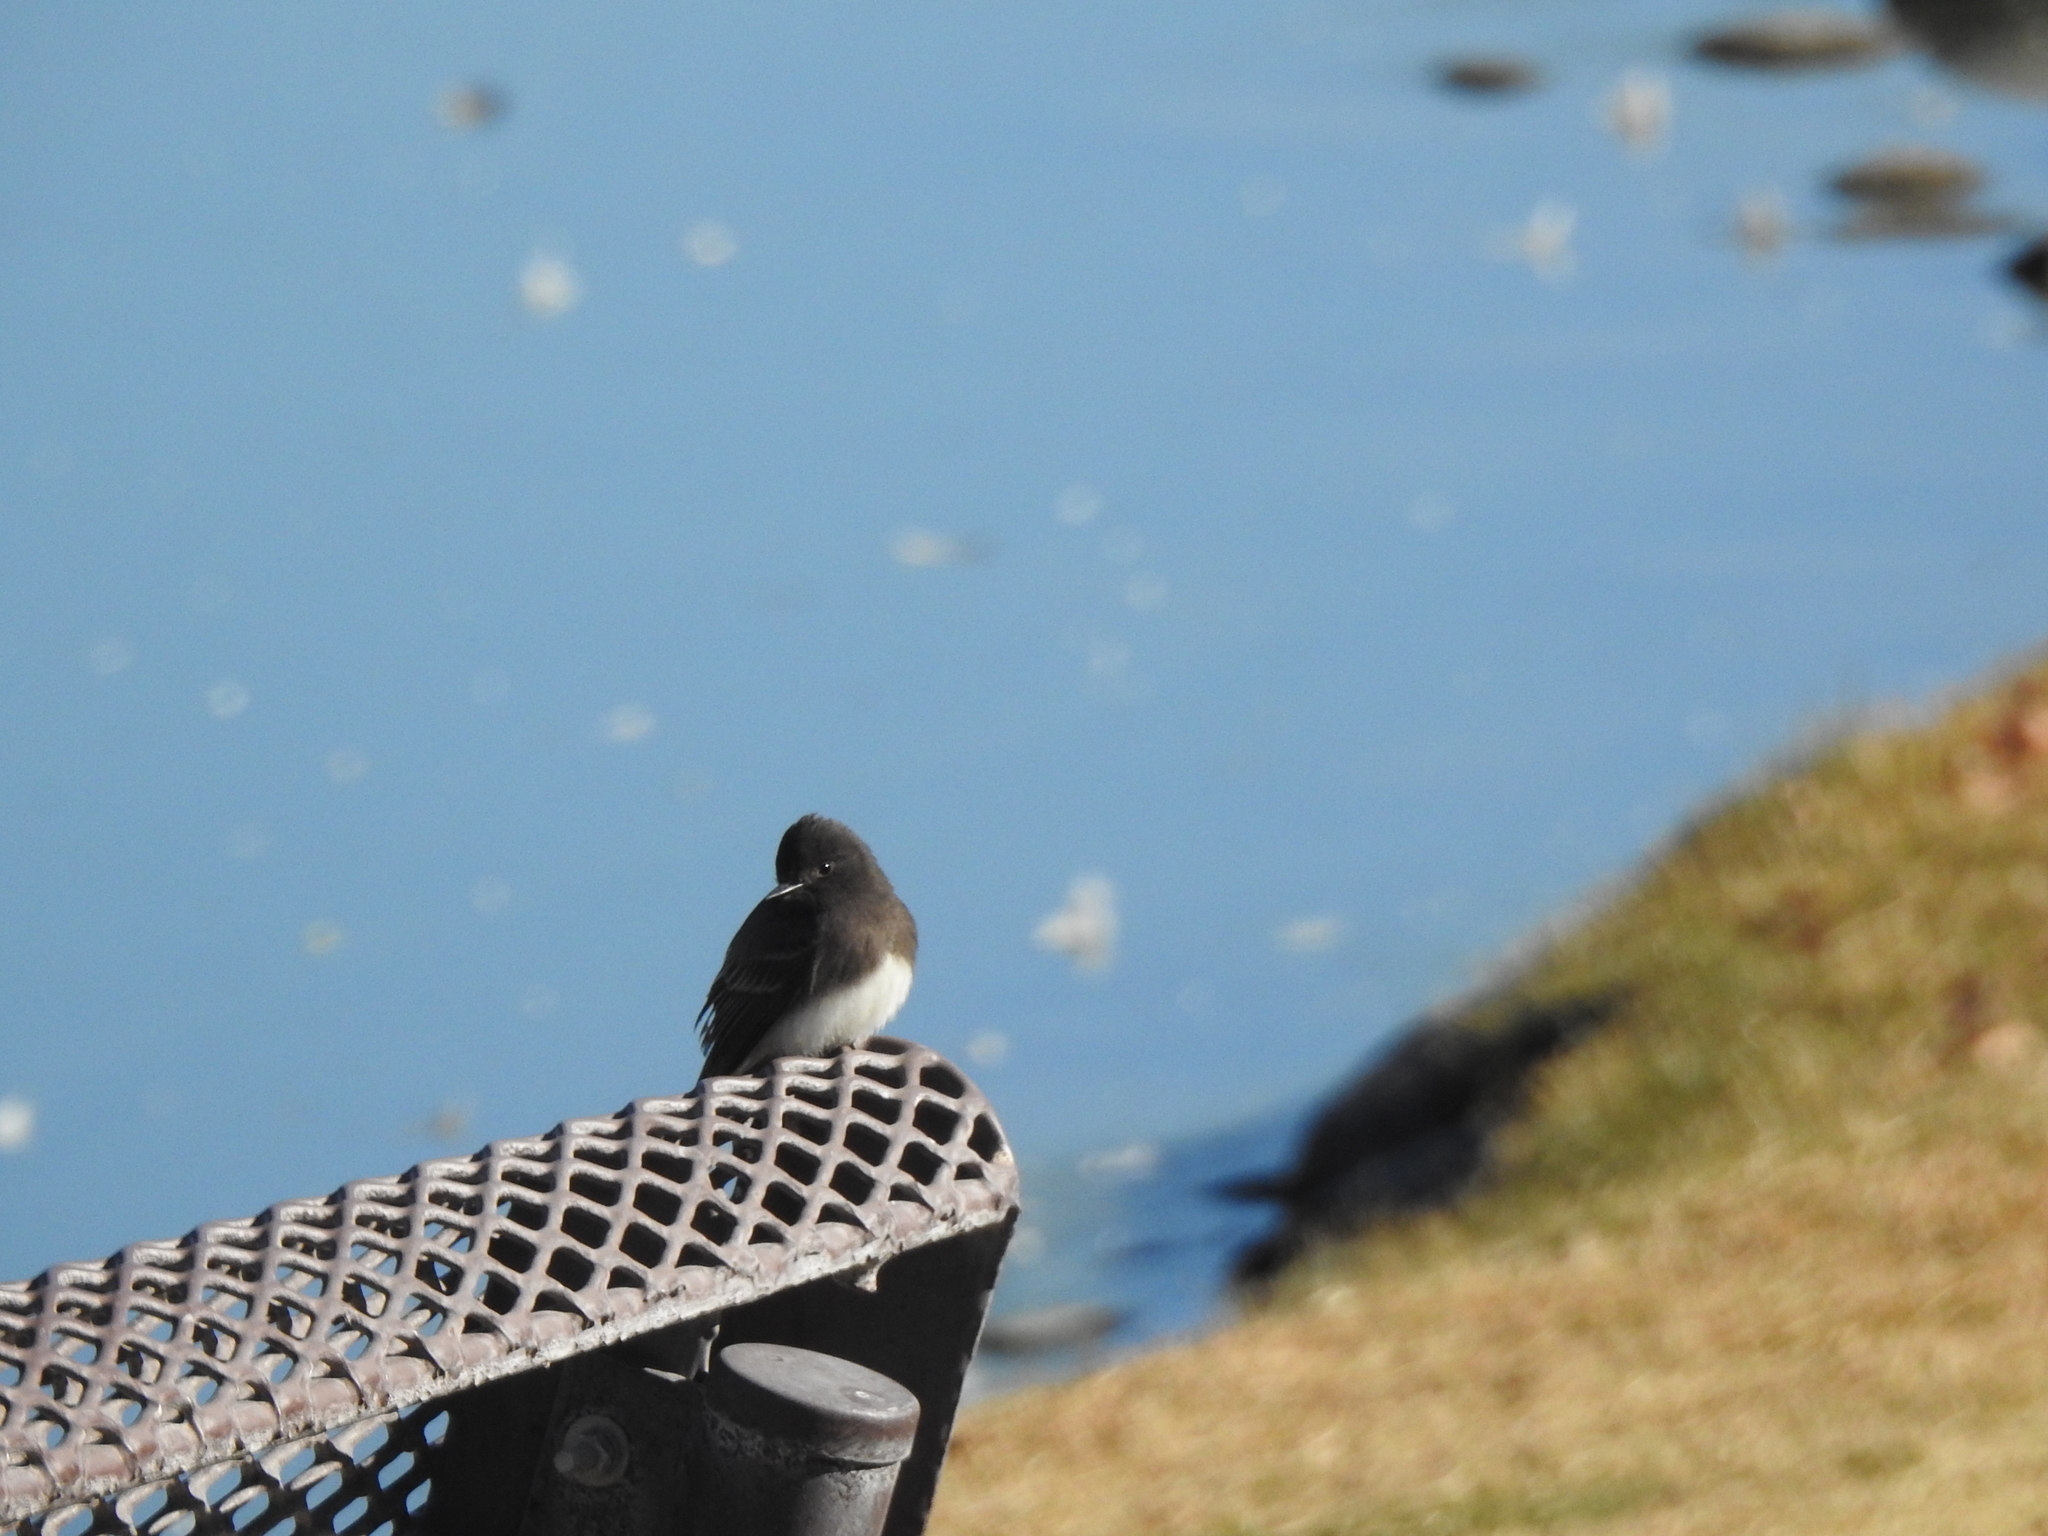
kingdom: Animalia
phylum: Chordata
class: Aves
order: Passeriformes
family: Tyrannidae
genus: Sayornis
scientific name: Sayornis nigricans
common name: Black phoebe
